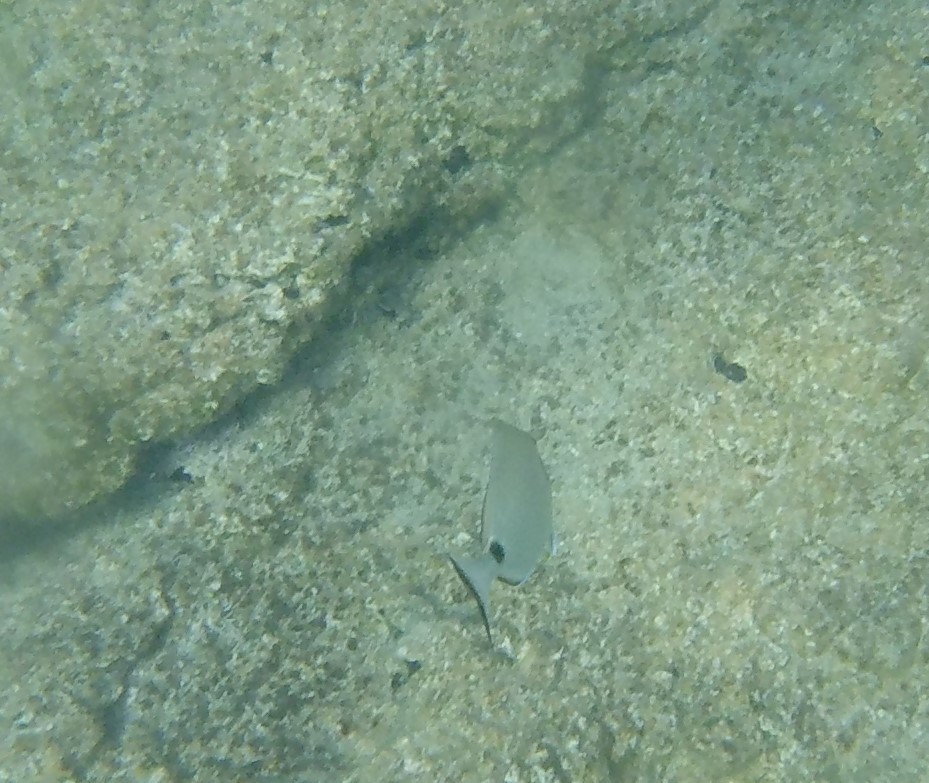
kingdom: Animalia
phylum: Chordata
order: Perciformes
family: Sparidae
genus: Diplodus
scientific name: Diplodus sargus
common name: White seabream
